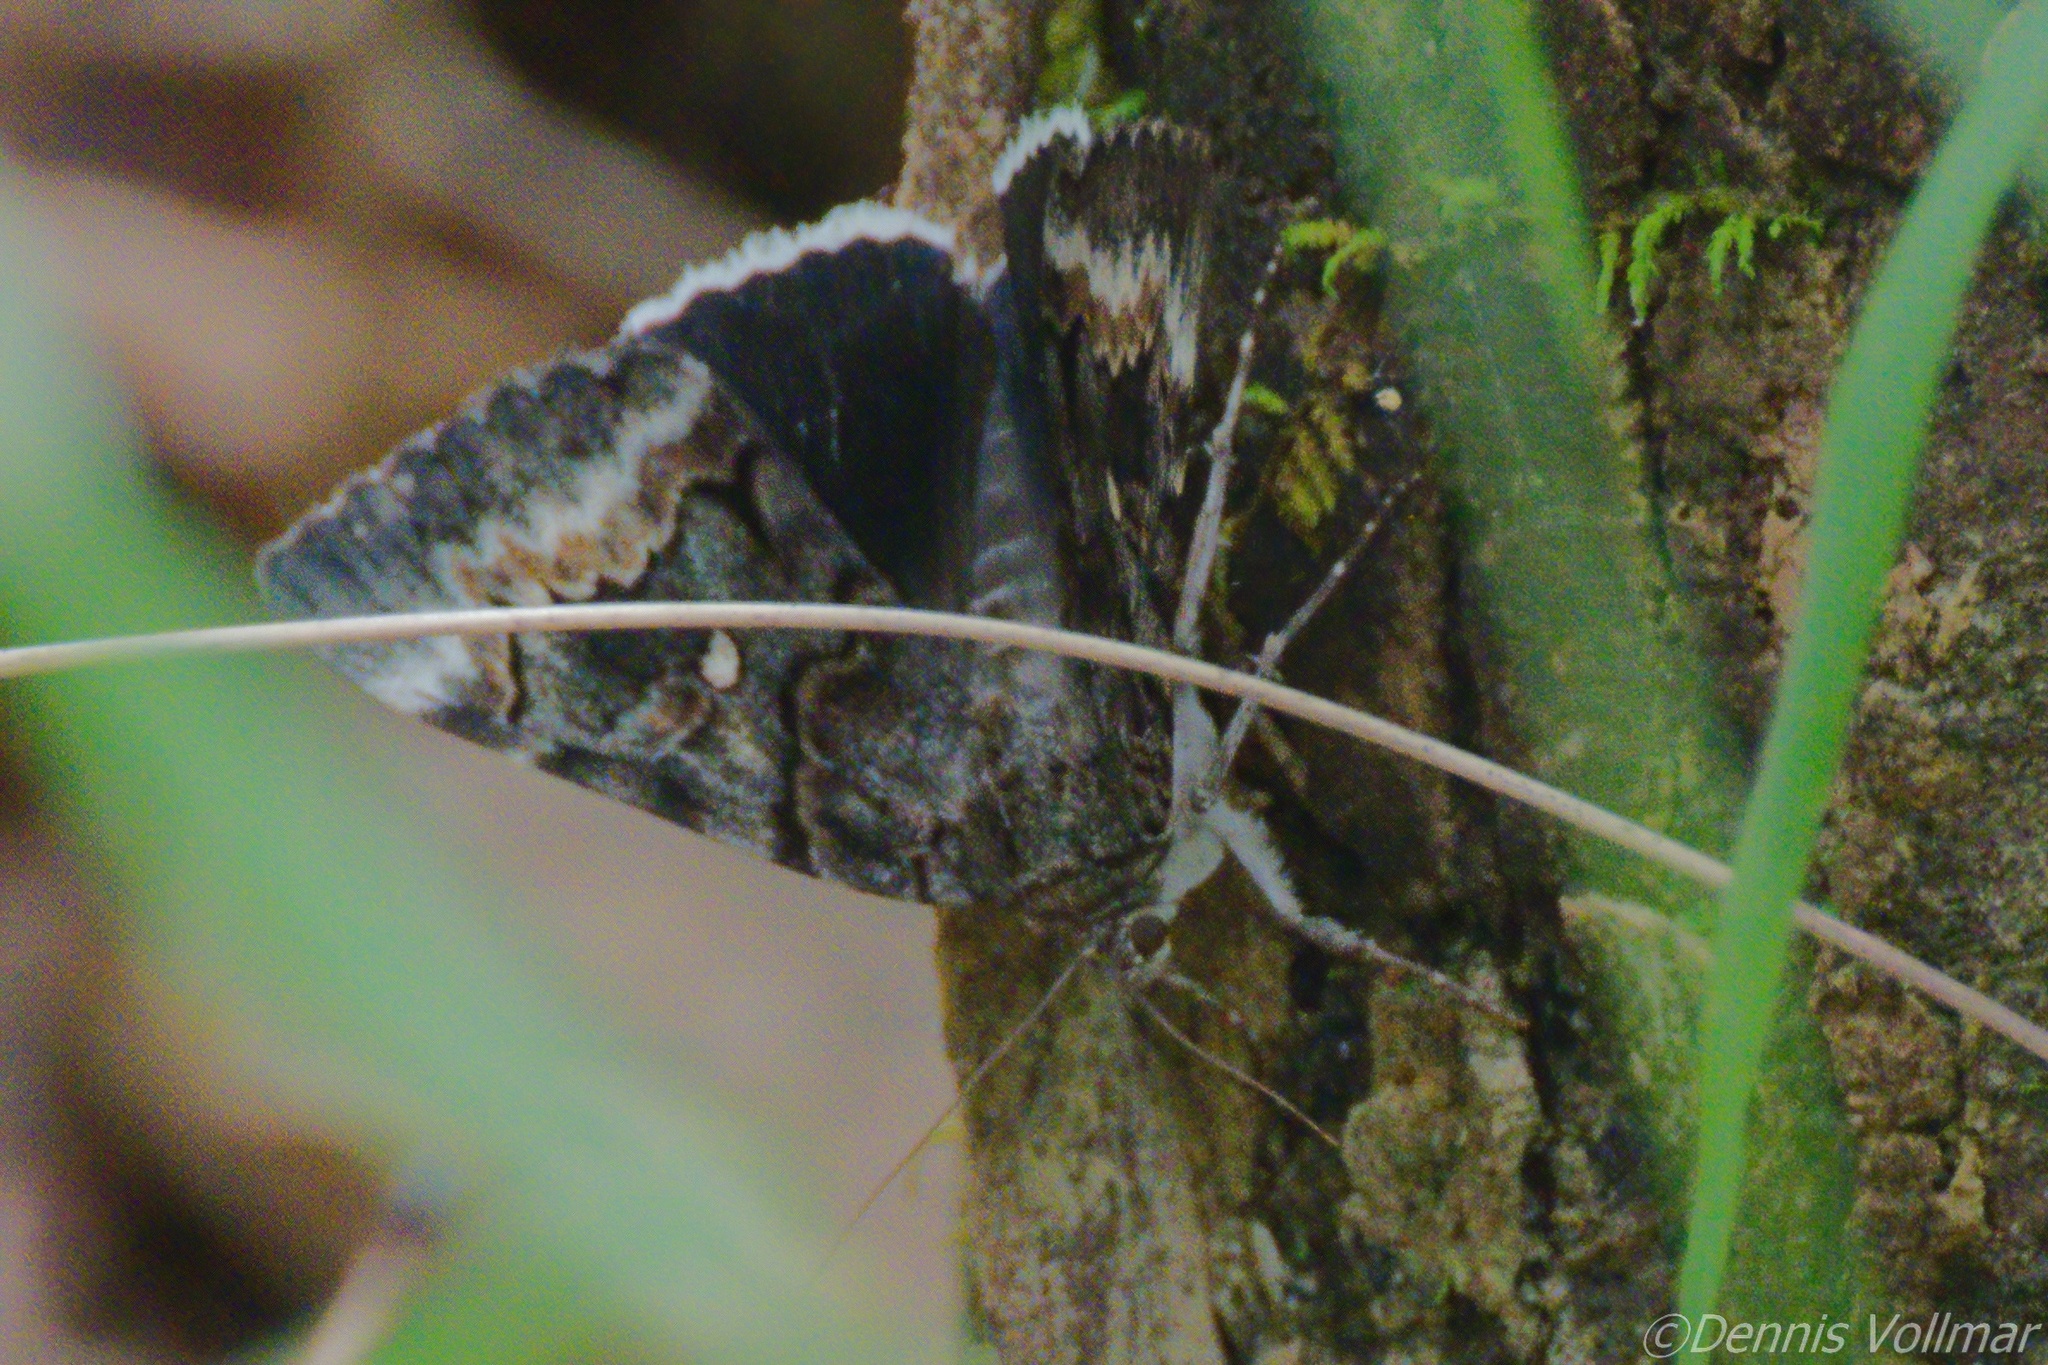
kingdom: Animalia
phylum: Arthropoda
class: Insecta
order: Lepidoptera
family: Erebidae
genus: Catocala
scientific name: Catocala epione
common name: Epione underwing
